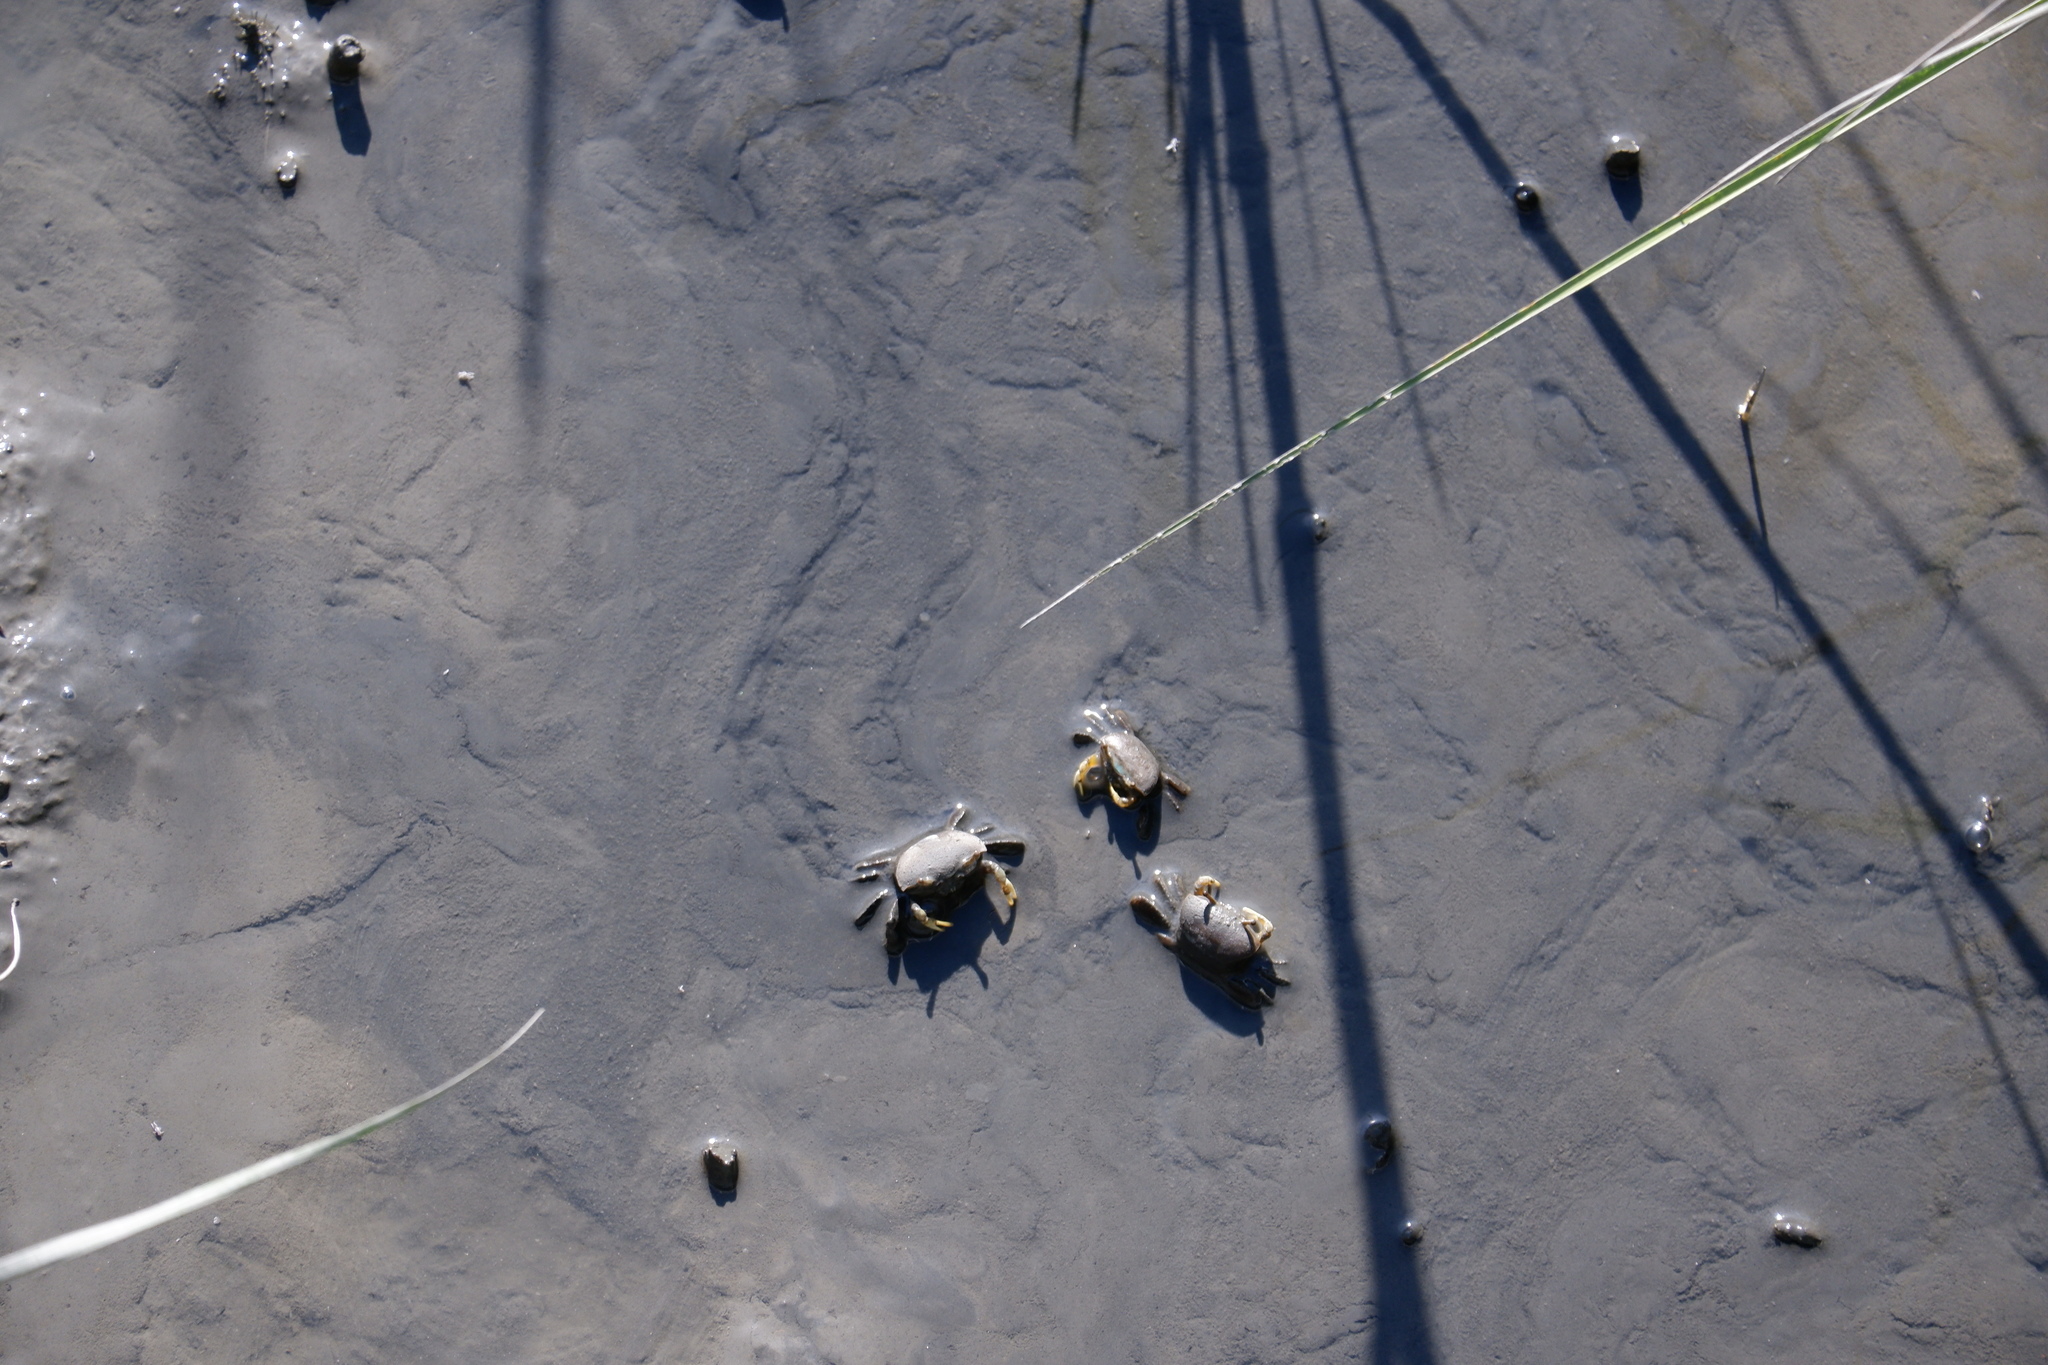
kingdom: Animalia
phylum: Arthropoda
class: Malacostraca
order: Decapoda
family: Ocypodidae
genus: Minuca
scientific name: Minuca pugnax
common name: Mud fiddler crab
